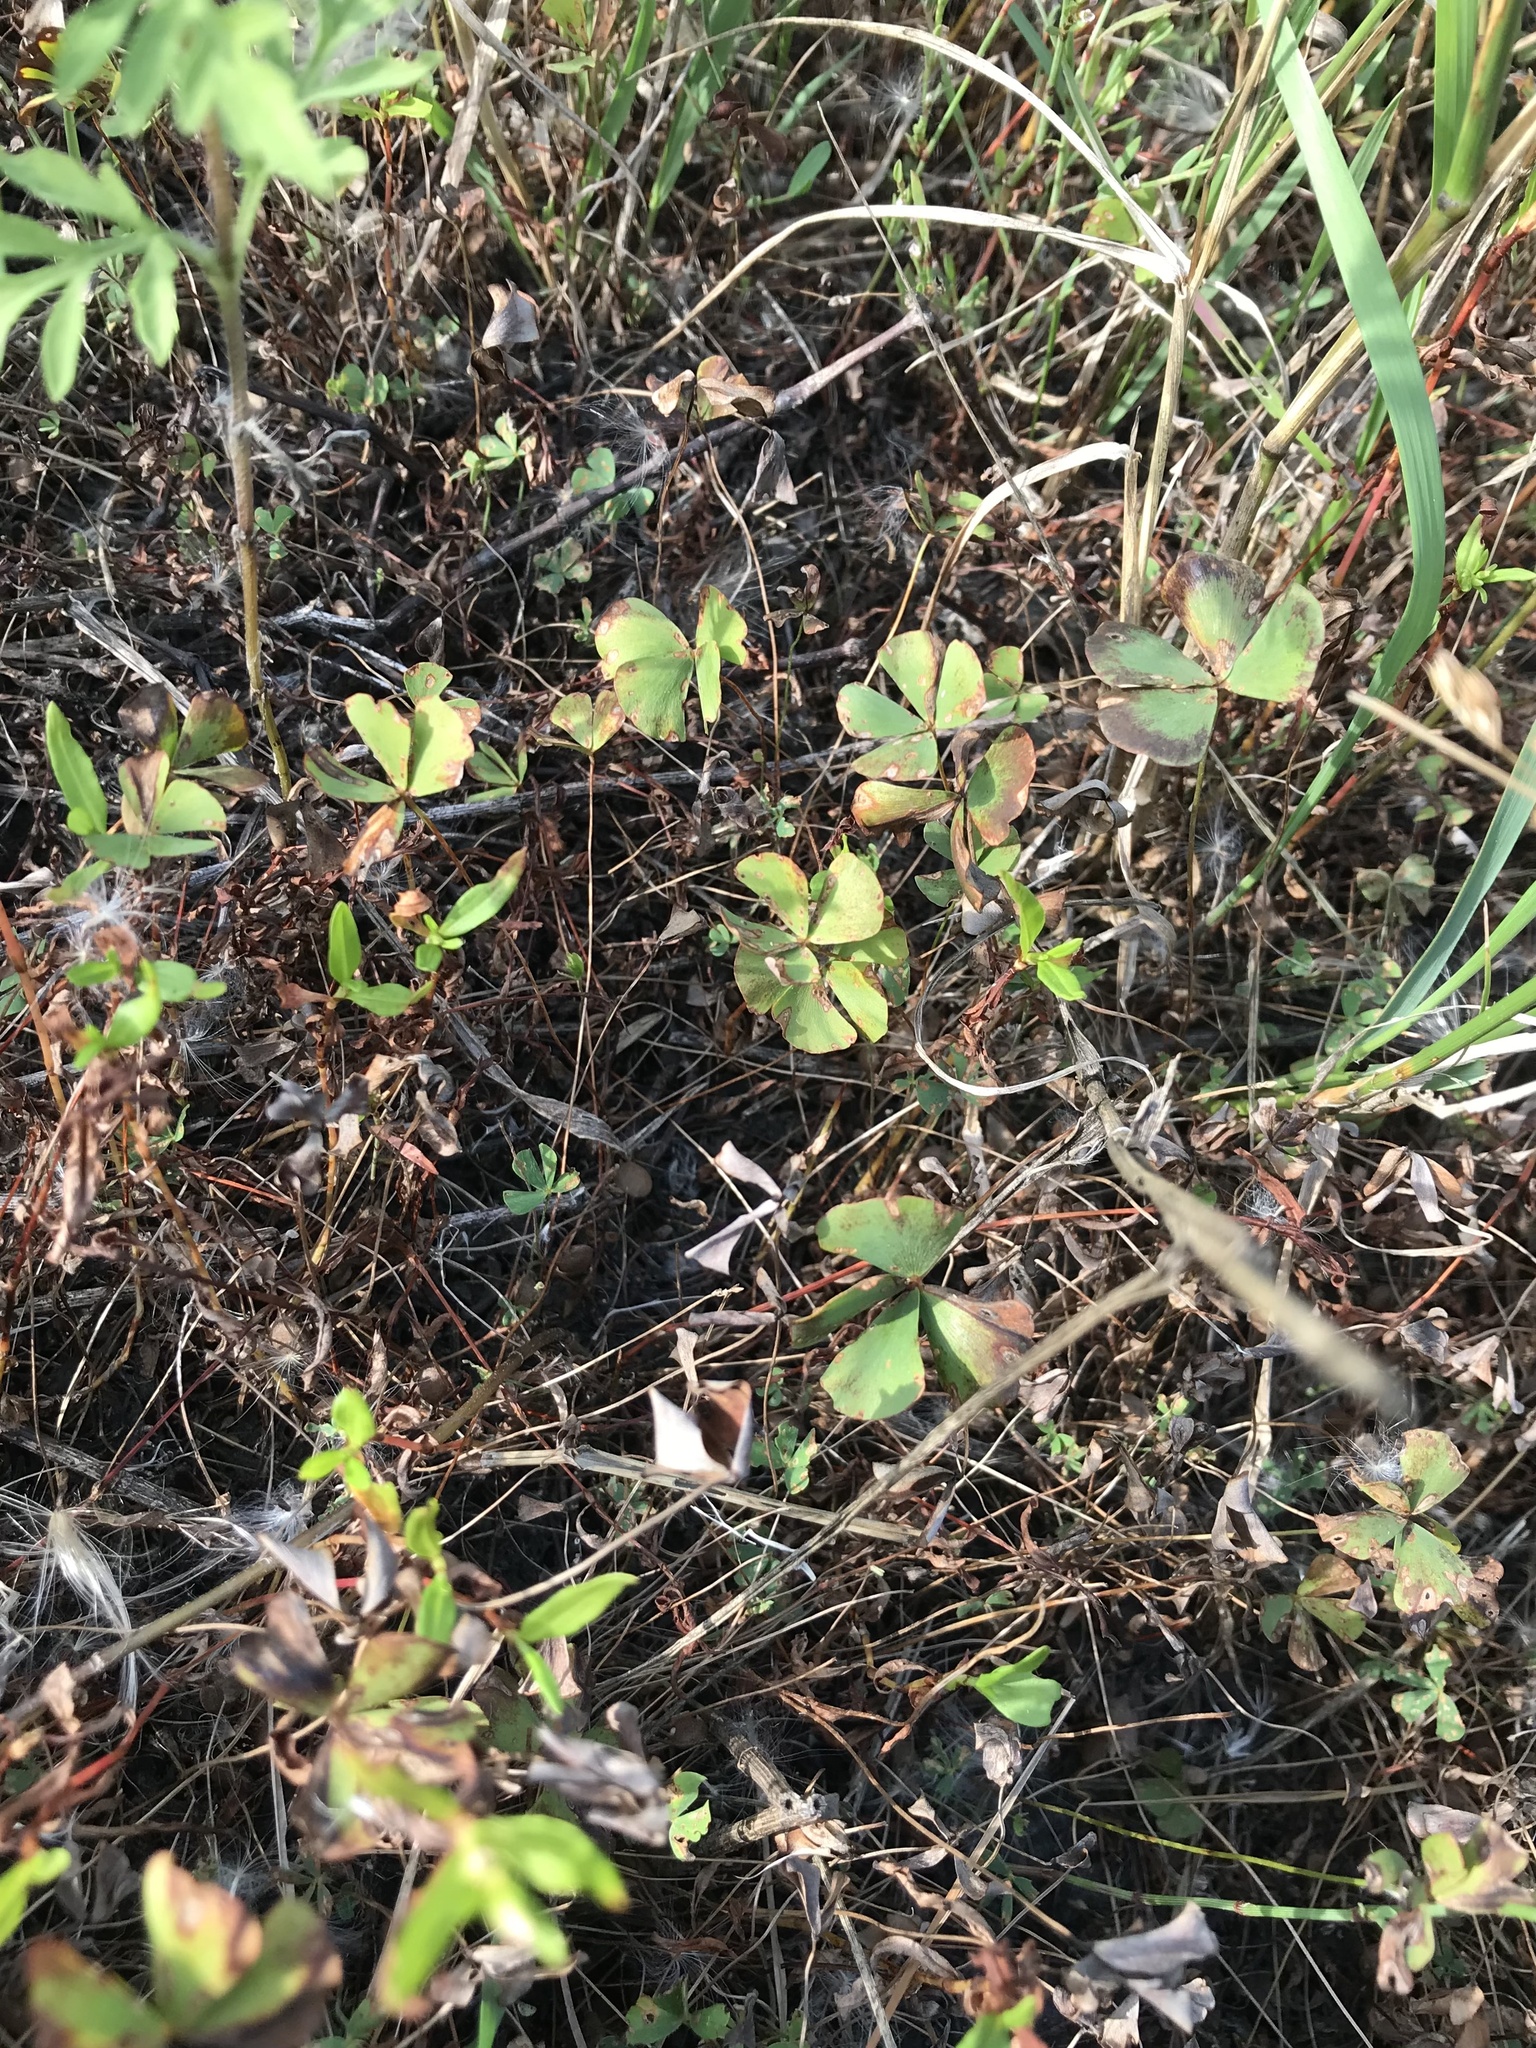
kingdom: Plantae
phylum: Tracheophyta
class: Polypodiopsida
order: Salviniales
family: Marsileaceae
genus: Marsilea
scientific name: Marsilea vestita
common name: Hooked-pepperwort
